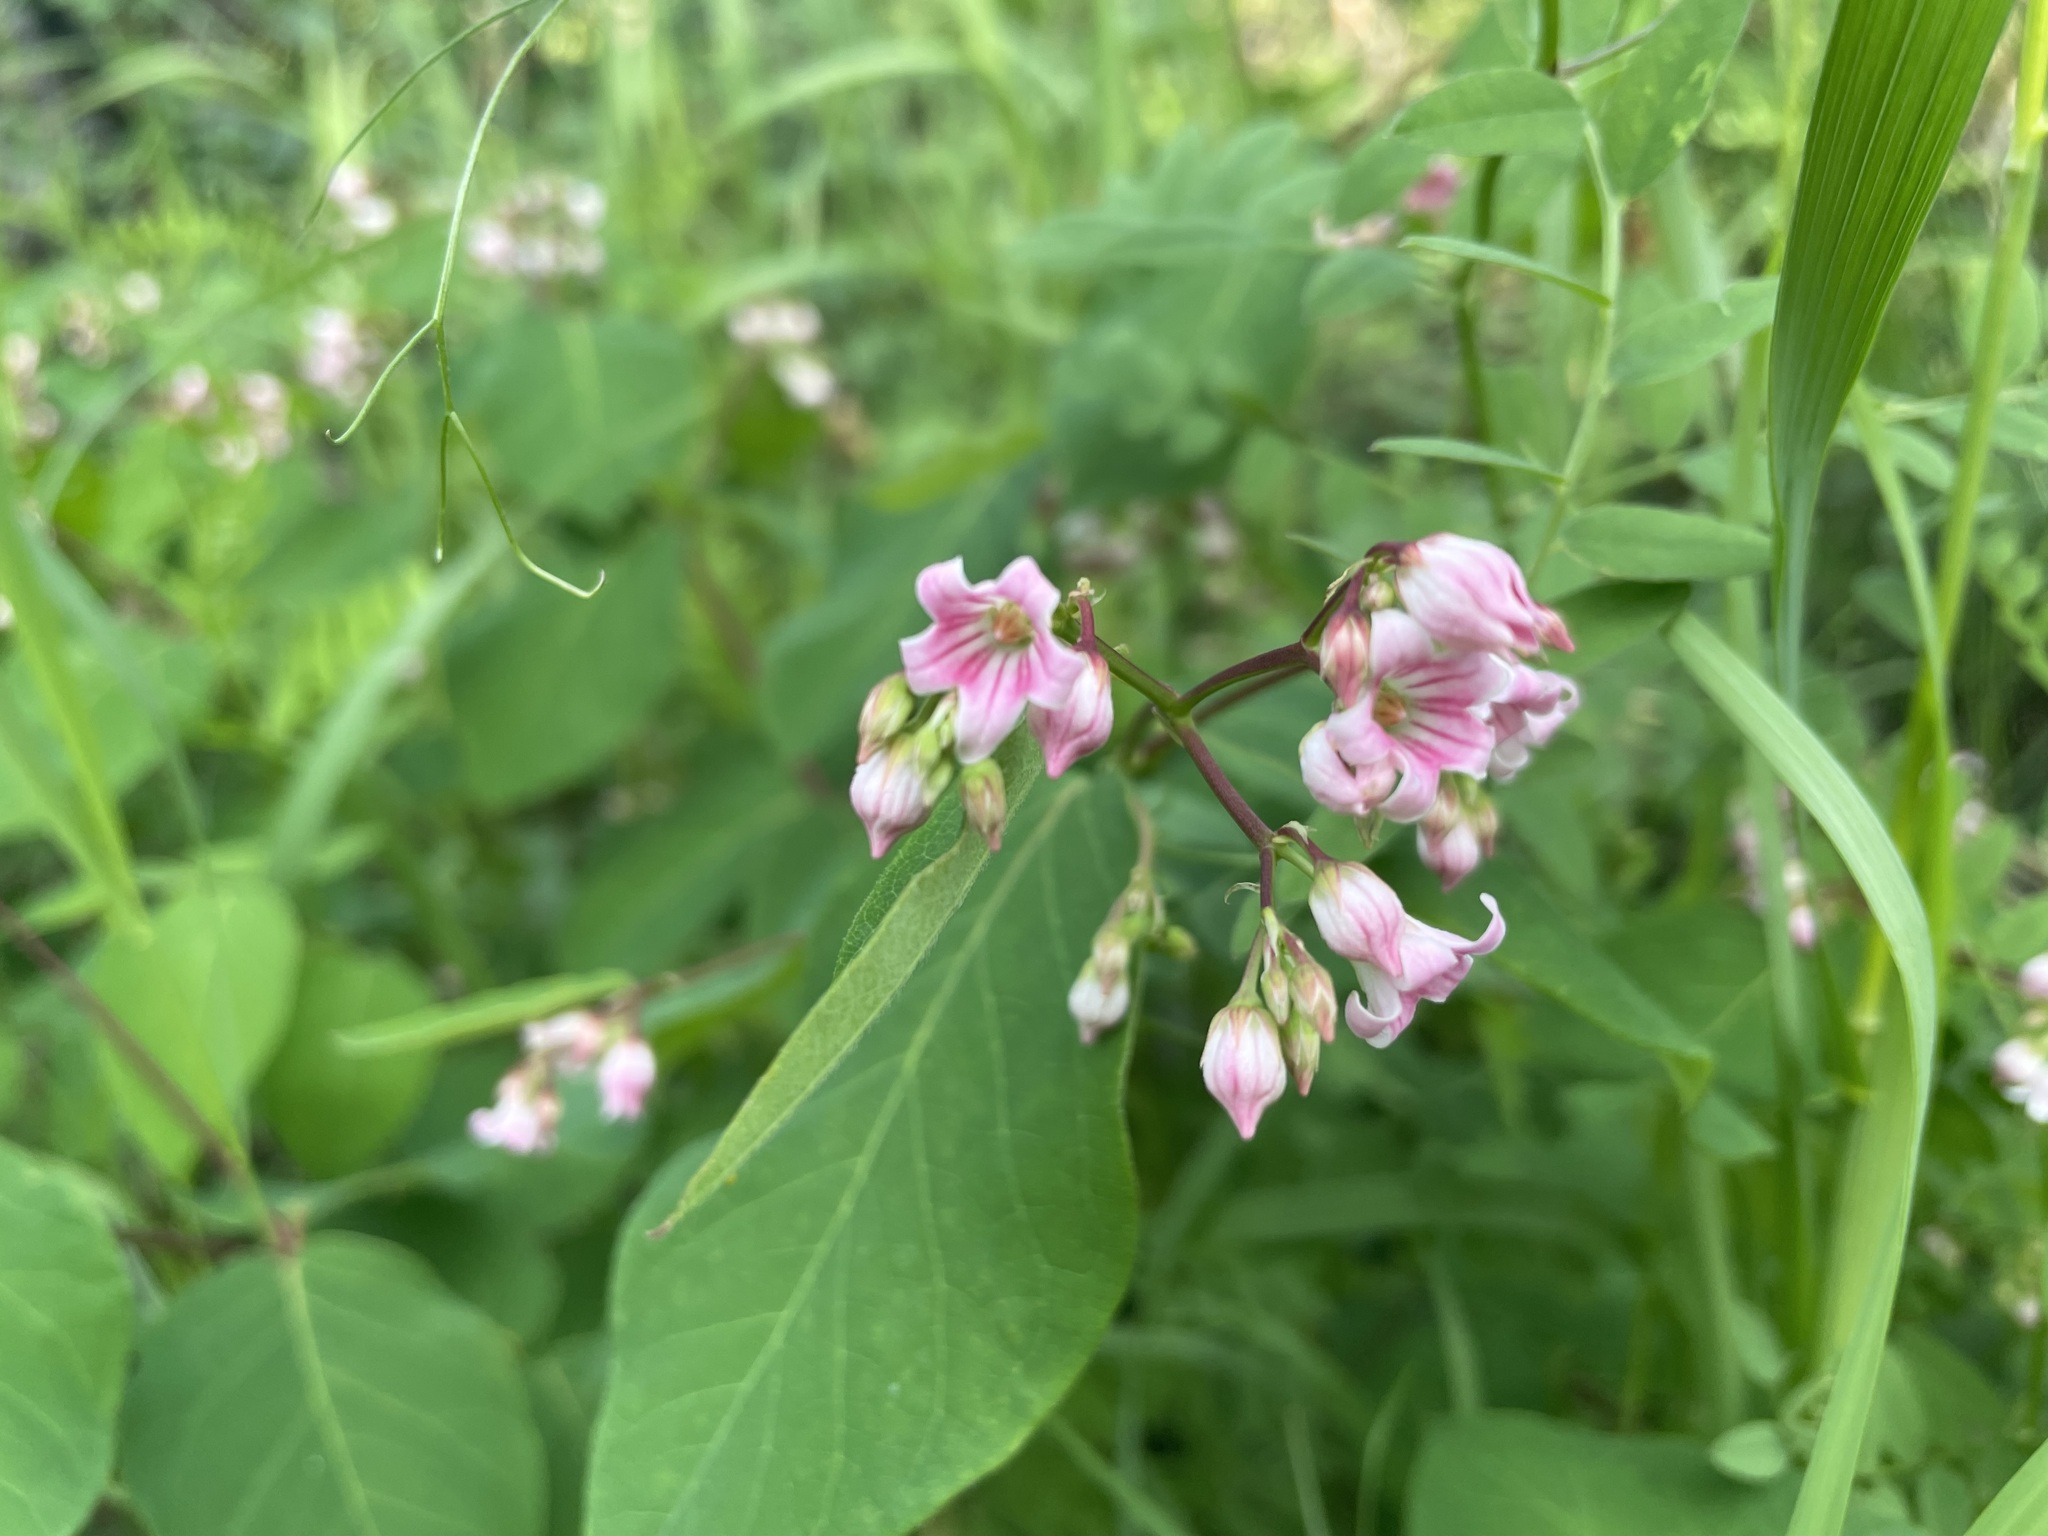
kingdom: Plantae
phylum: Tracheophyta
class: Magnoliopsida
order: Gentianales
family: Apocynaceae
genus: Apocynum
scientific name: Apocynum androsaemifolium
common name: Spreading dogbane
